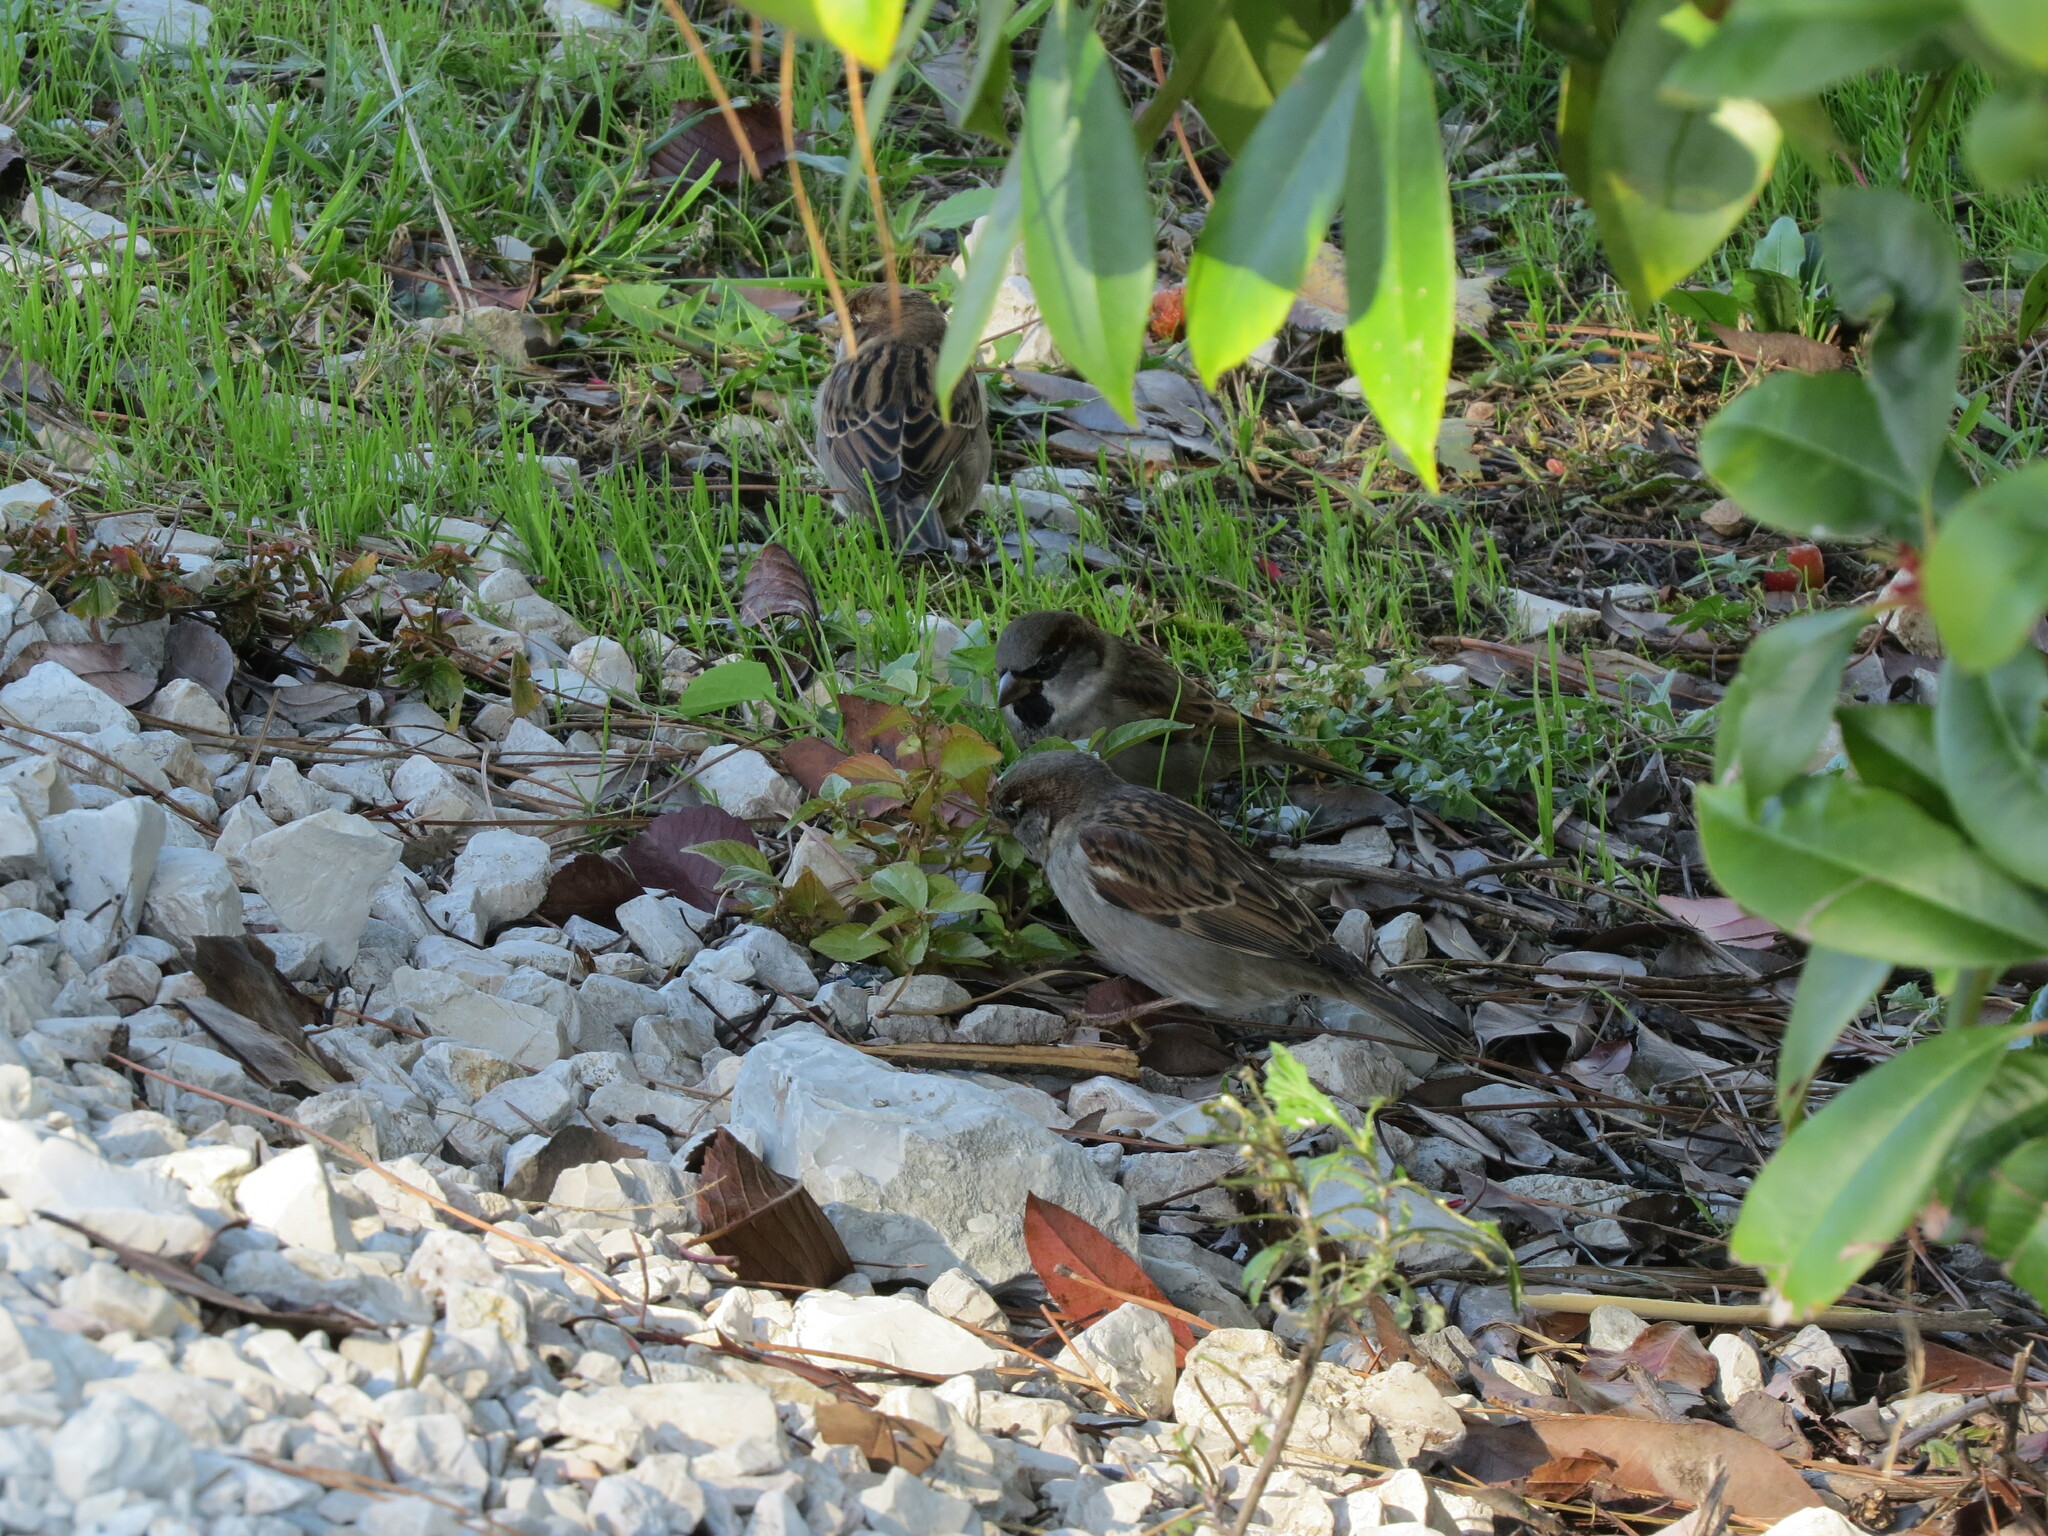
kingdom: Animalia
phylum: Chordata
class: Aves
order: Passeriformes
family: Passeridae
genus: Passer
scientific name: Passer domesticus
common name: House sparrow
